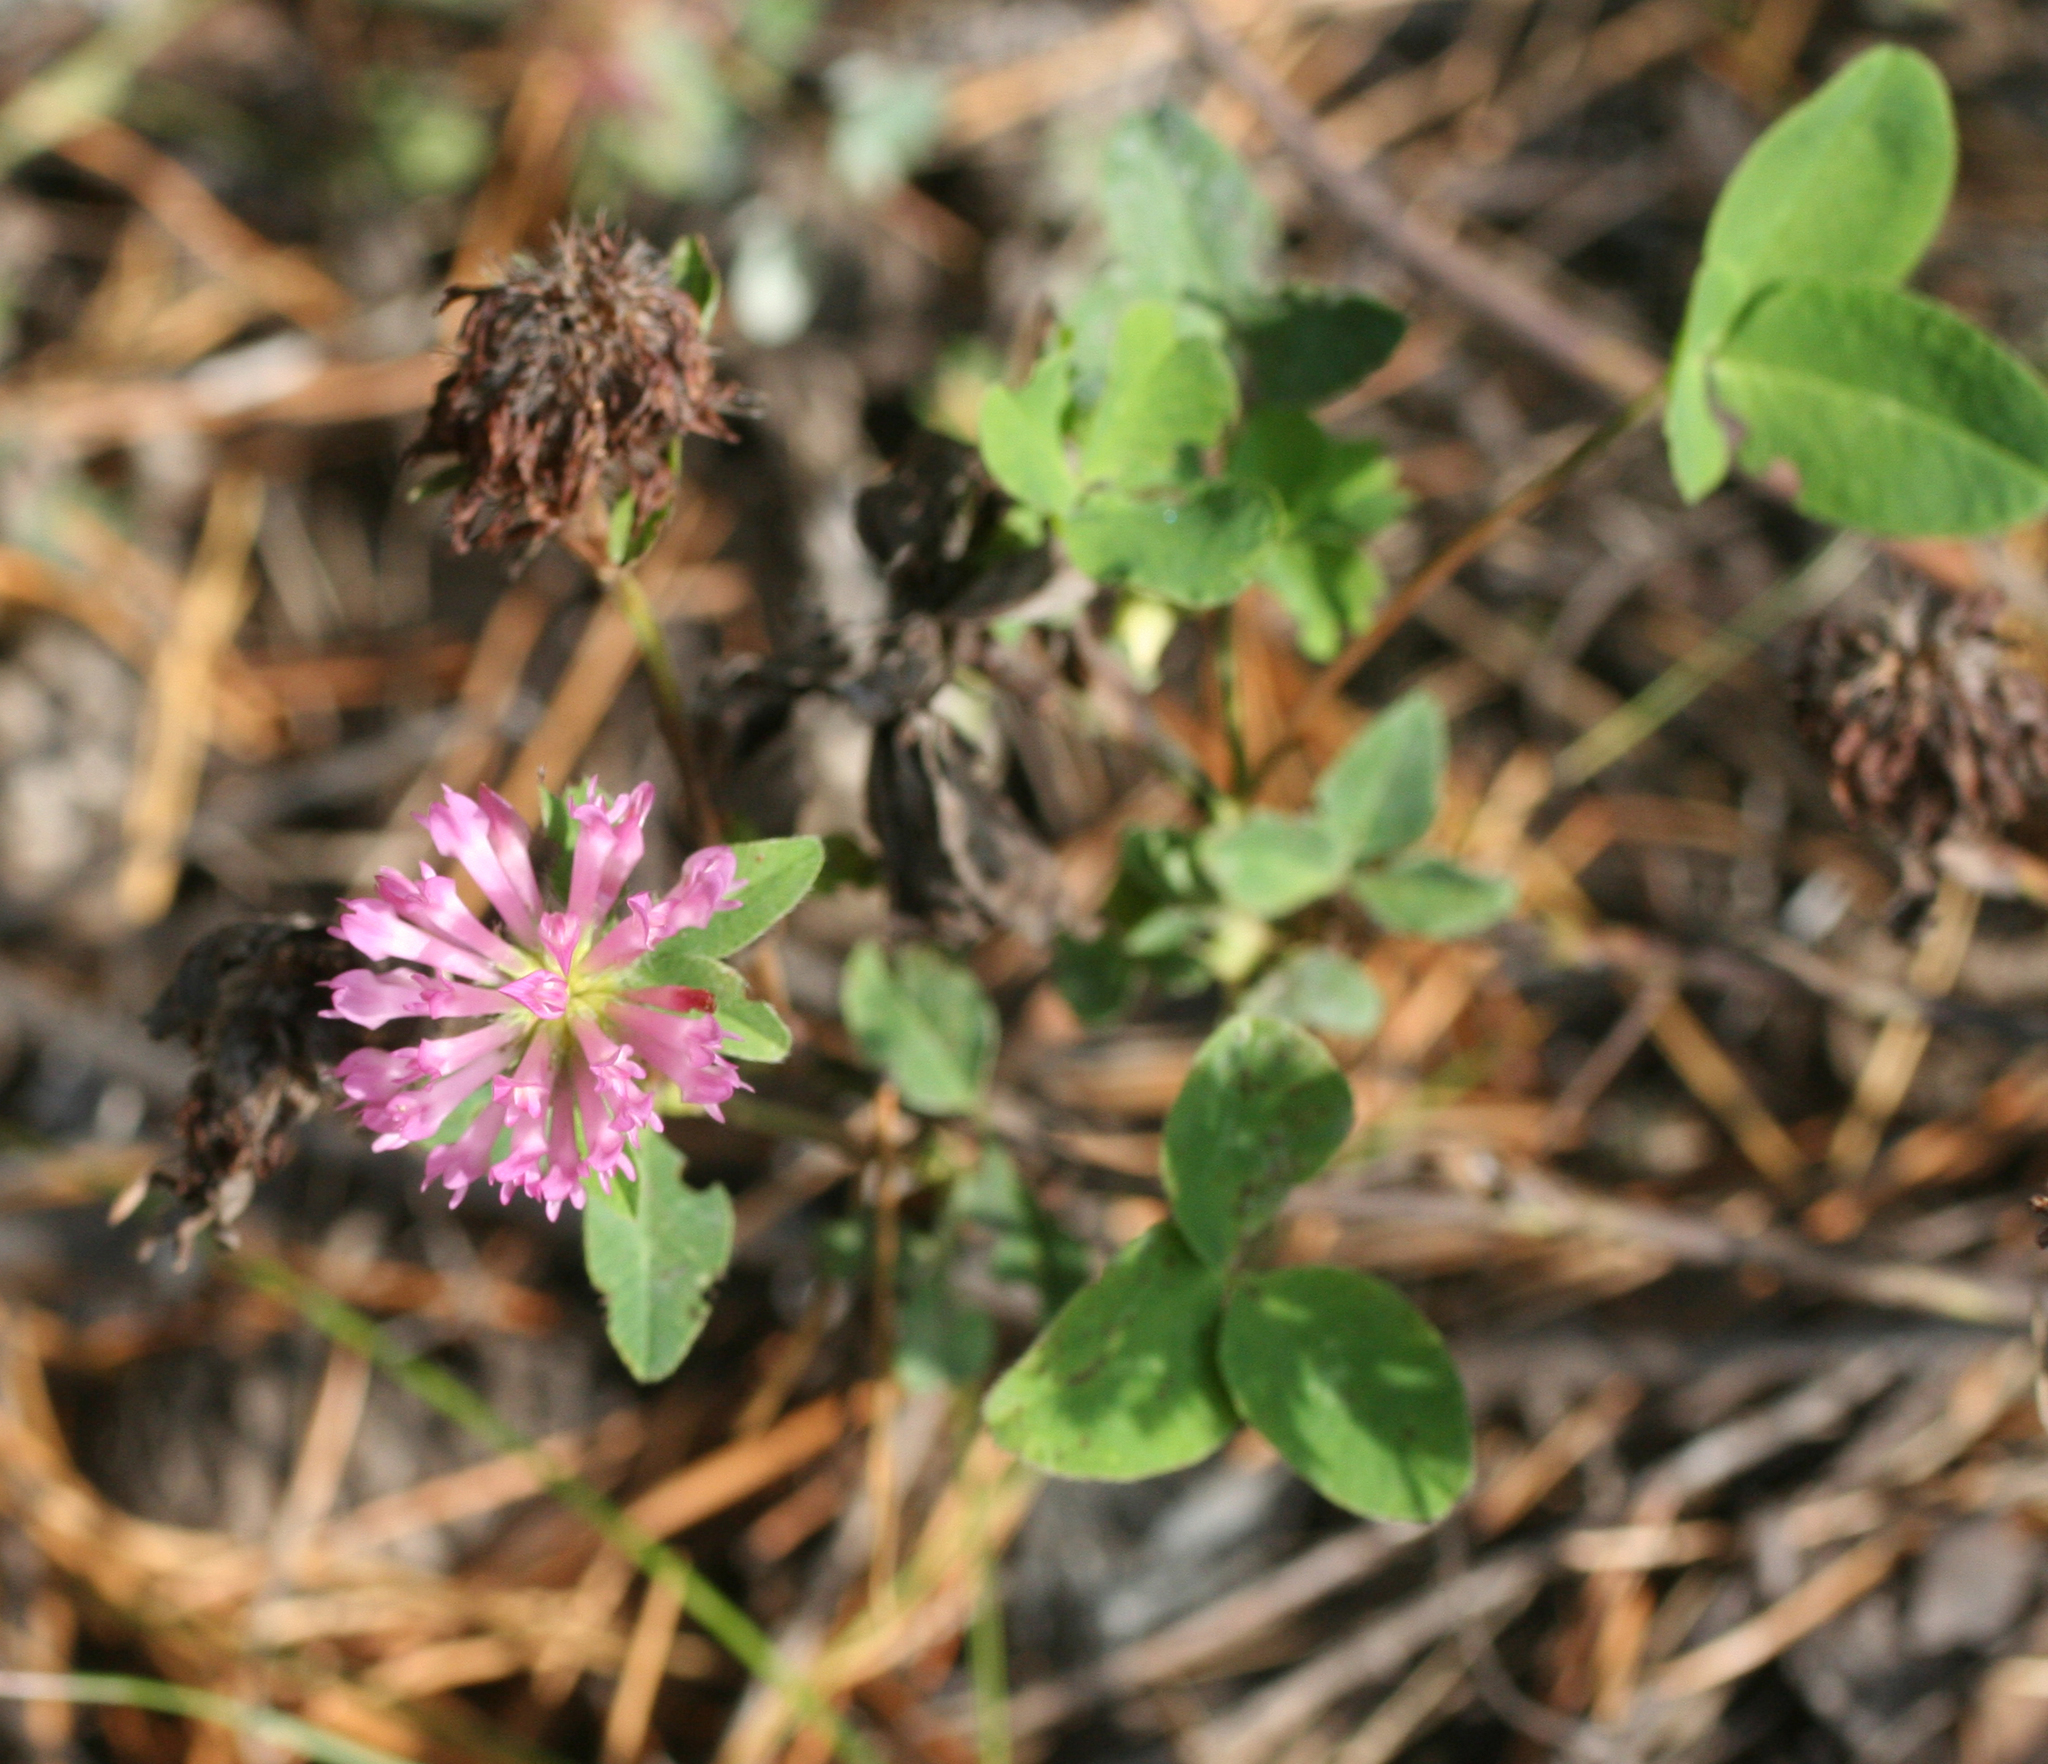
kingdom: Plantae
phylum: Tracheophyta
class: Magnoliopsida
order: Fabales
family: Fabaceae
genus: Trifolium
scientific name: Trifolium pratense
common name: Red clover
